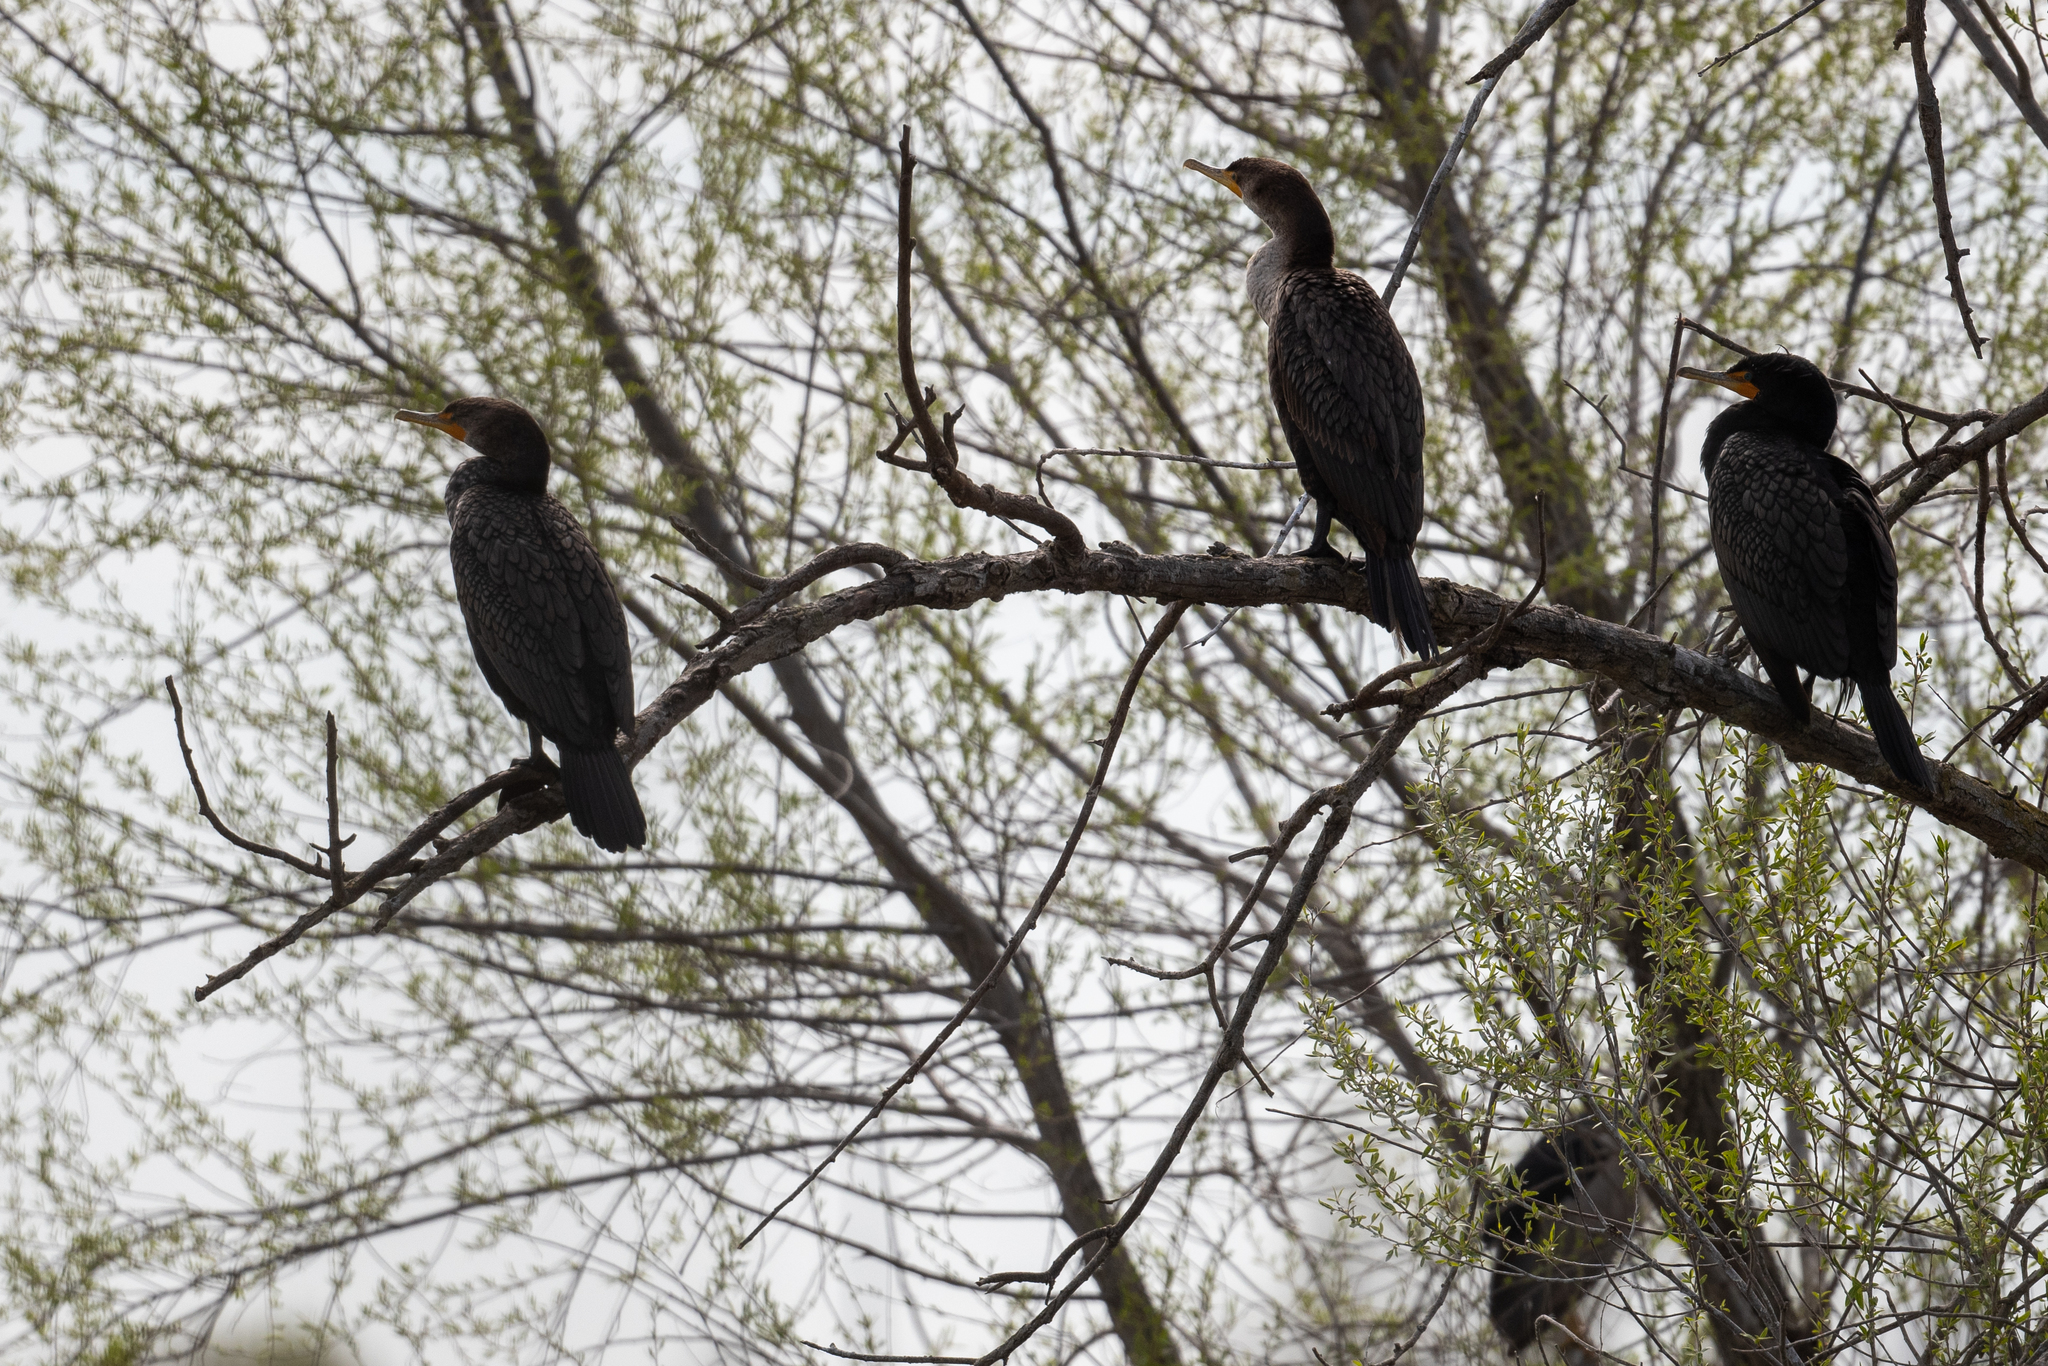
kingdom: Animalia
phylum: Chordata
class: Aves
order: Suliformes
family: Phalacrocoracidae
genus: Phalacrocorax
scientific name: Phalacrocorax auritus
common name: Double-crested cormorant
